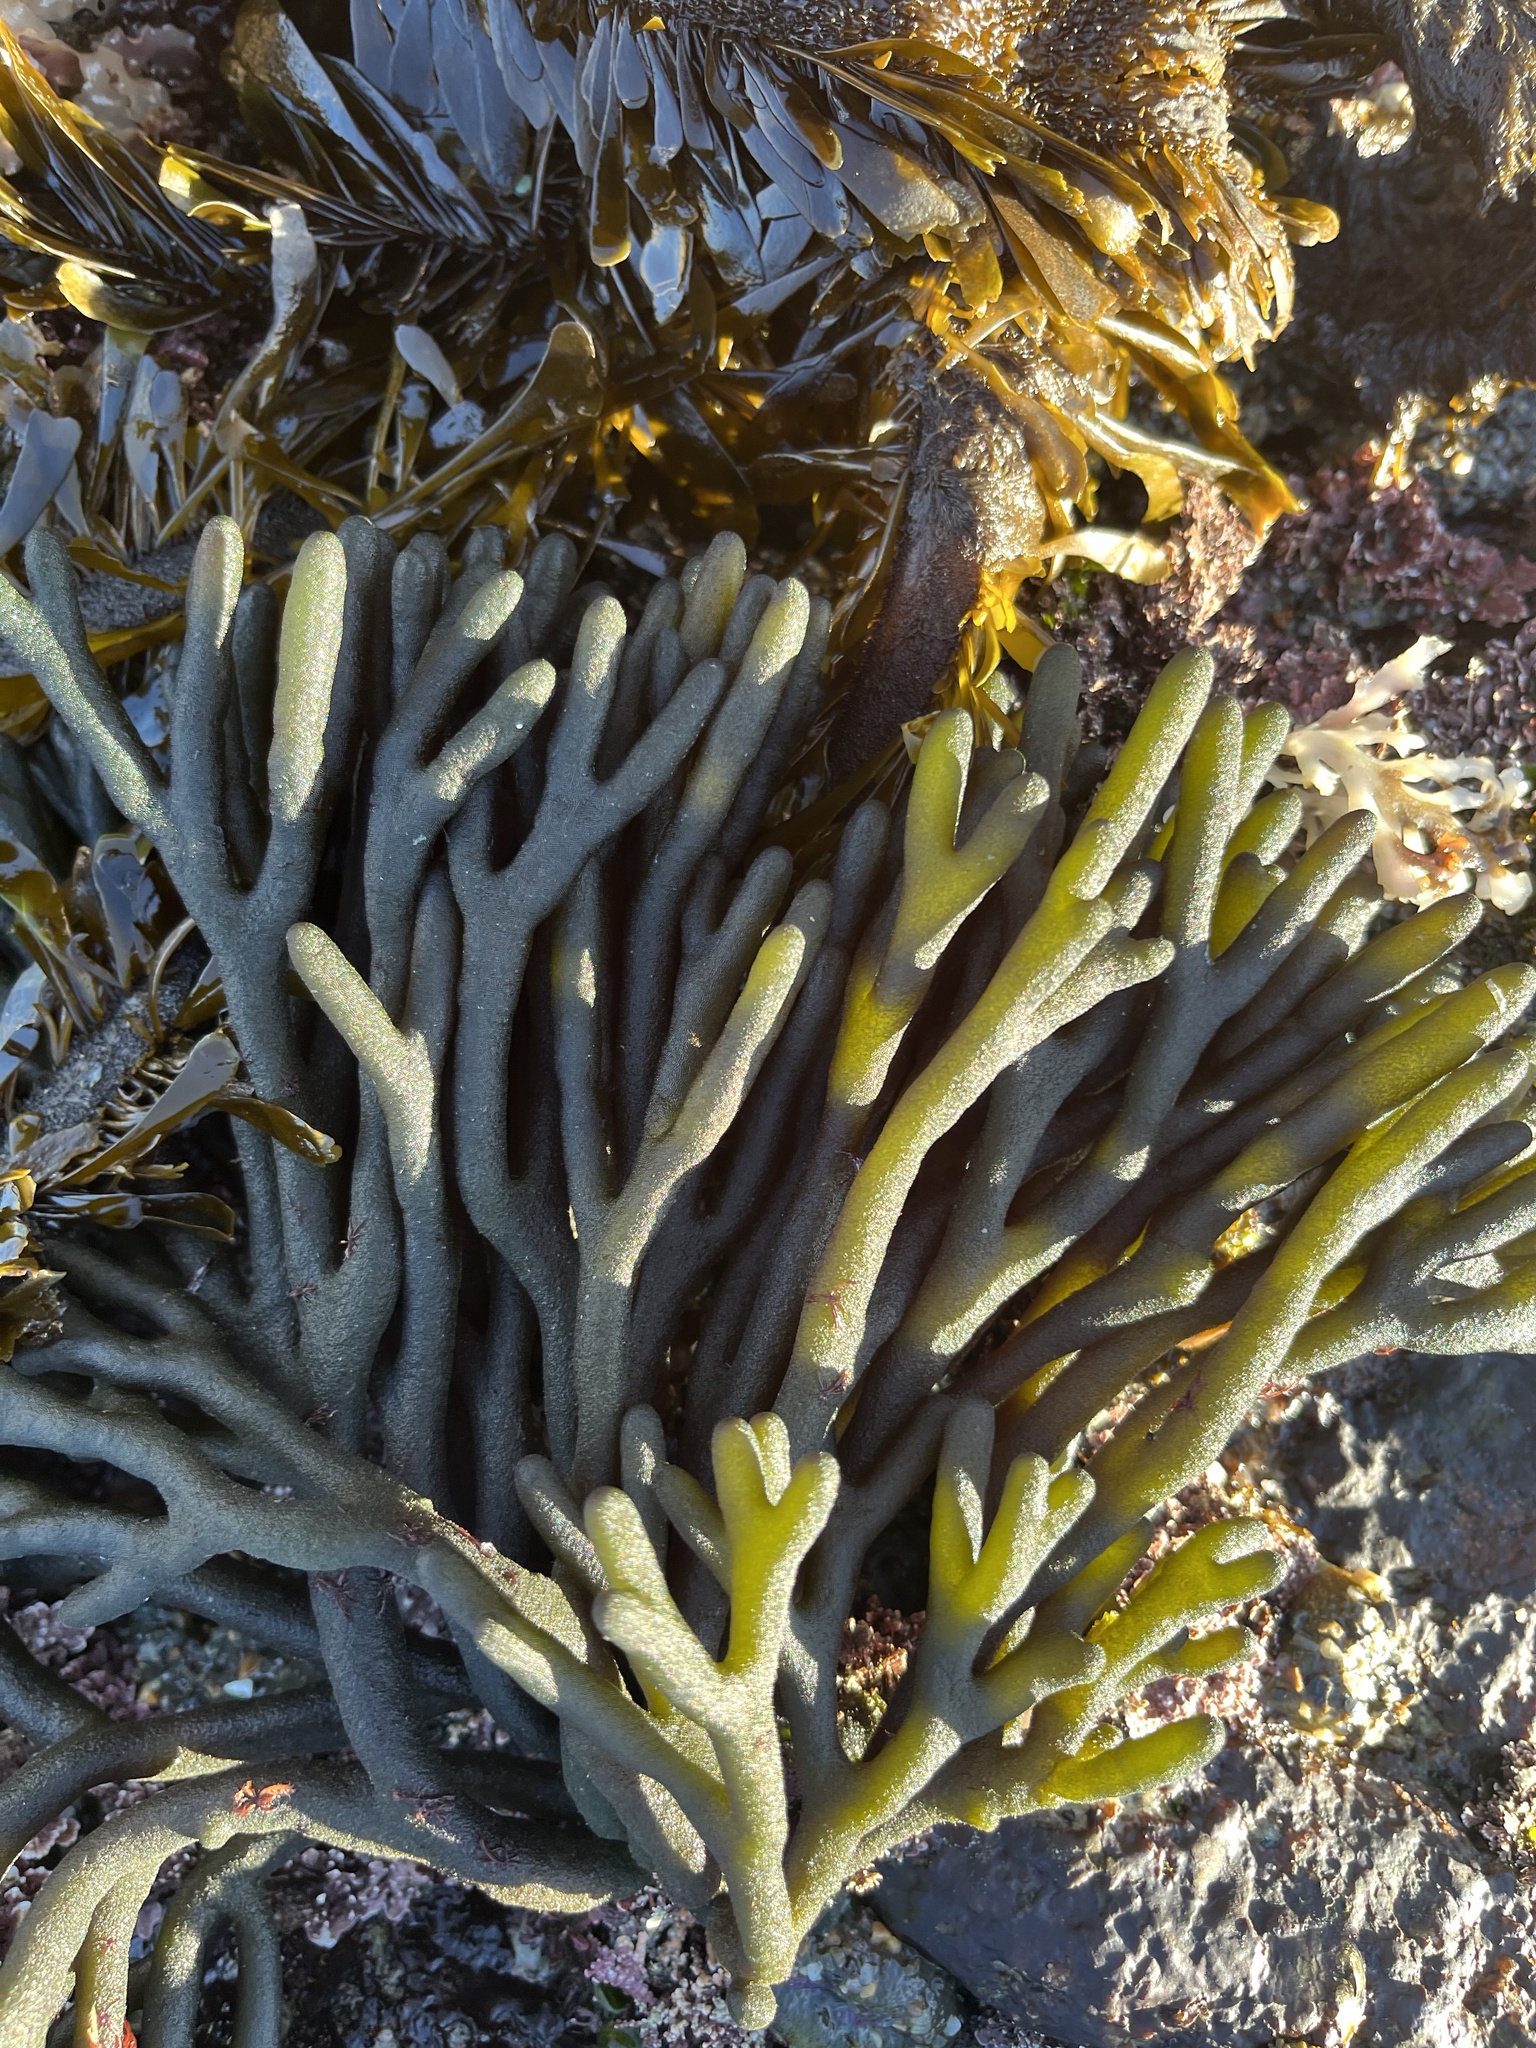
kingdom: Plantae
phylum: Chlorophyta
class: Ulvophyceae
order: Bryopsidales
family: Codiaceae
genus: Codium
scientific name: Codium fragile
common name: Dead man's fingers
